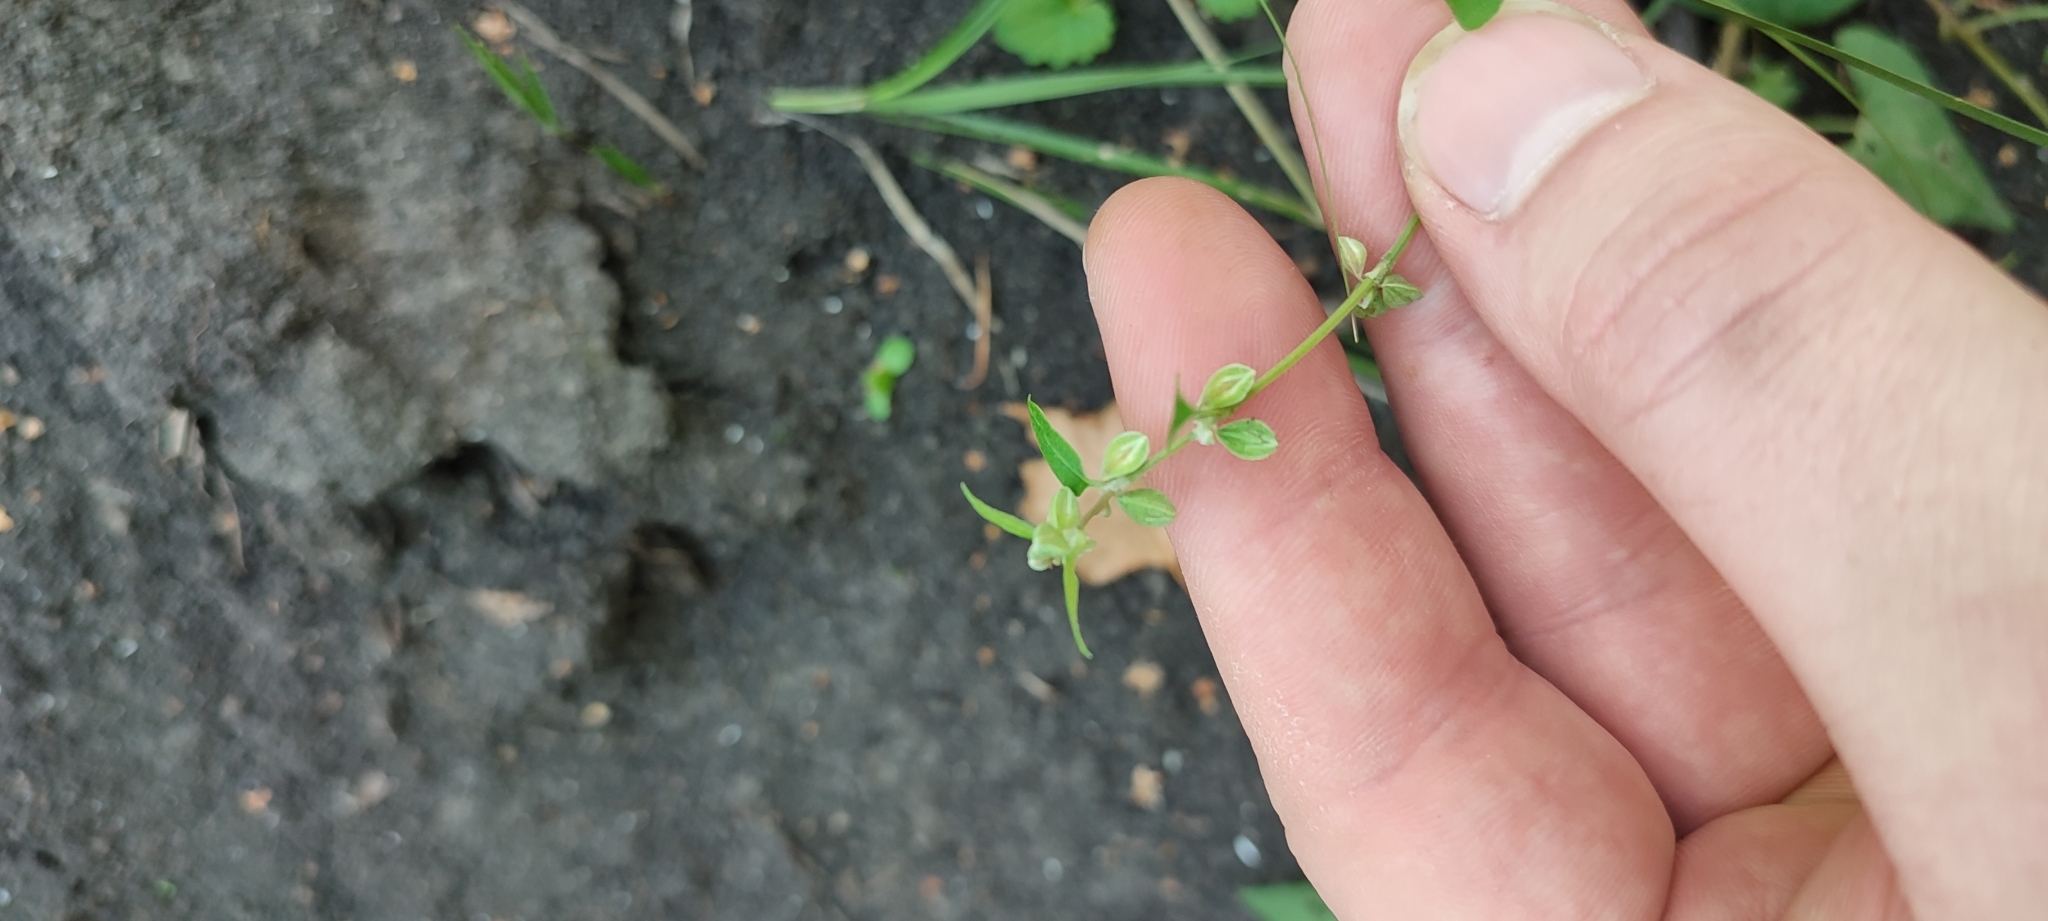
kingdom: Plantae
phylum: Tracheophyta
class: Magnoliopsida
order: Caryophyllales
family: Polygonaceae
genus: Fallopia
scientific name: Fallopia convolvulus
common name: Black bindweed
